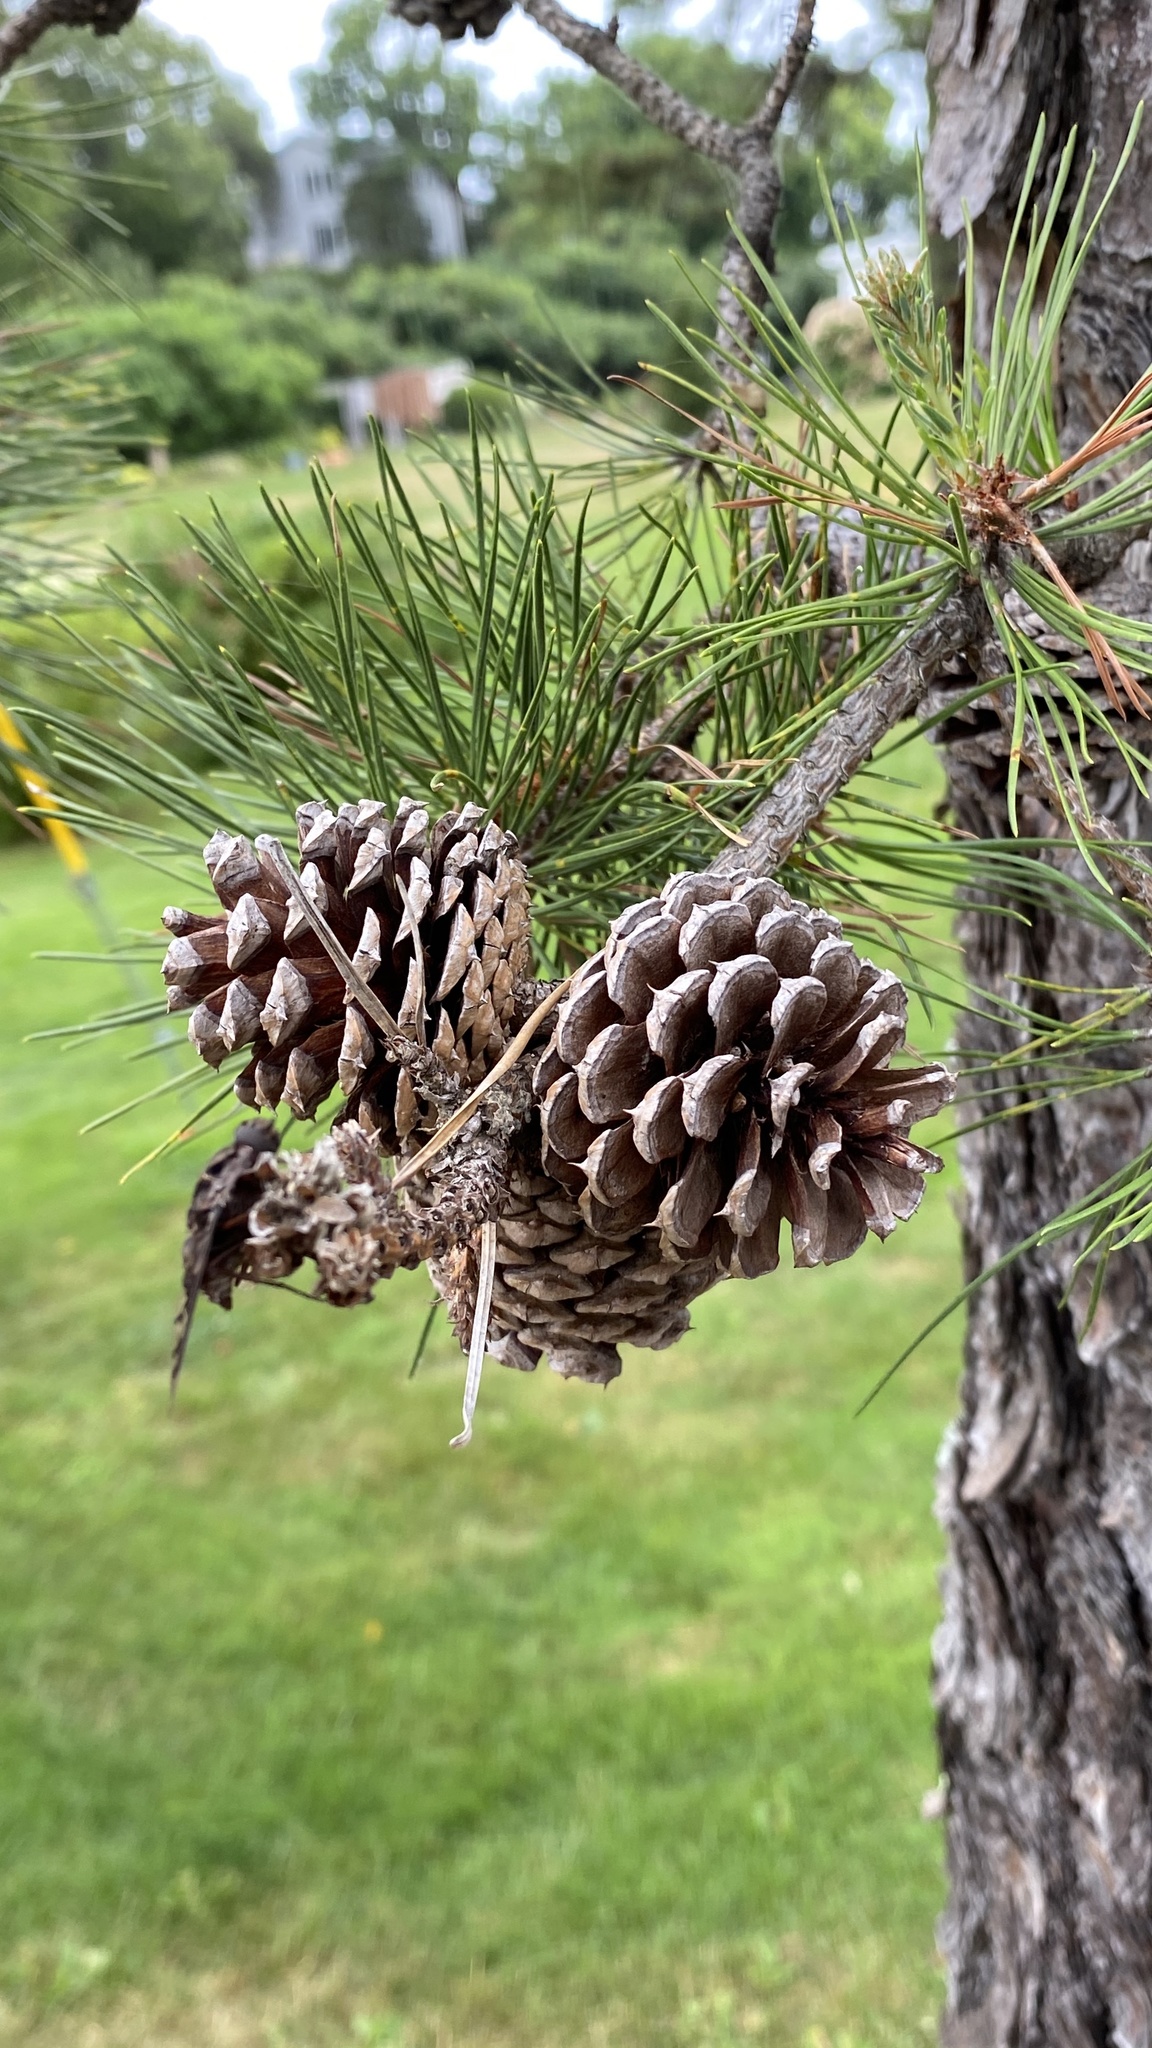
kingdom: Plantae
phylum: Tracheophyta
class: Pinopsida
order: Pinales
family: Pinaceae
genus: Pinus
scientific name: Pinus rigida
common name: Pitch pine
